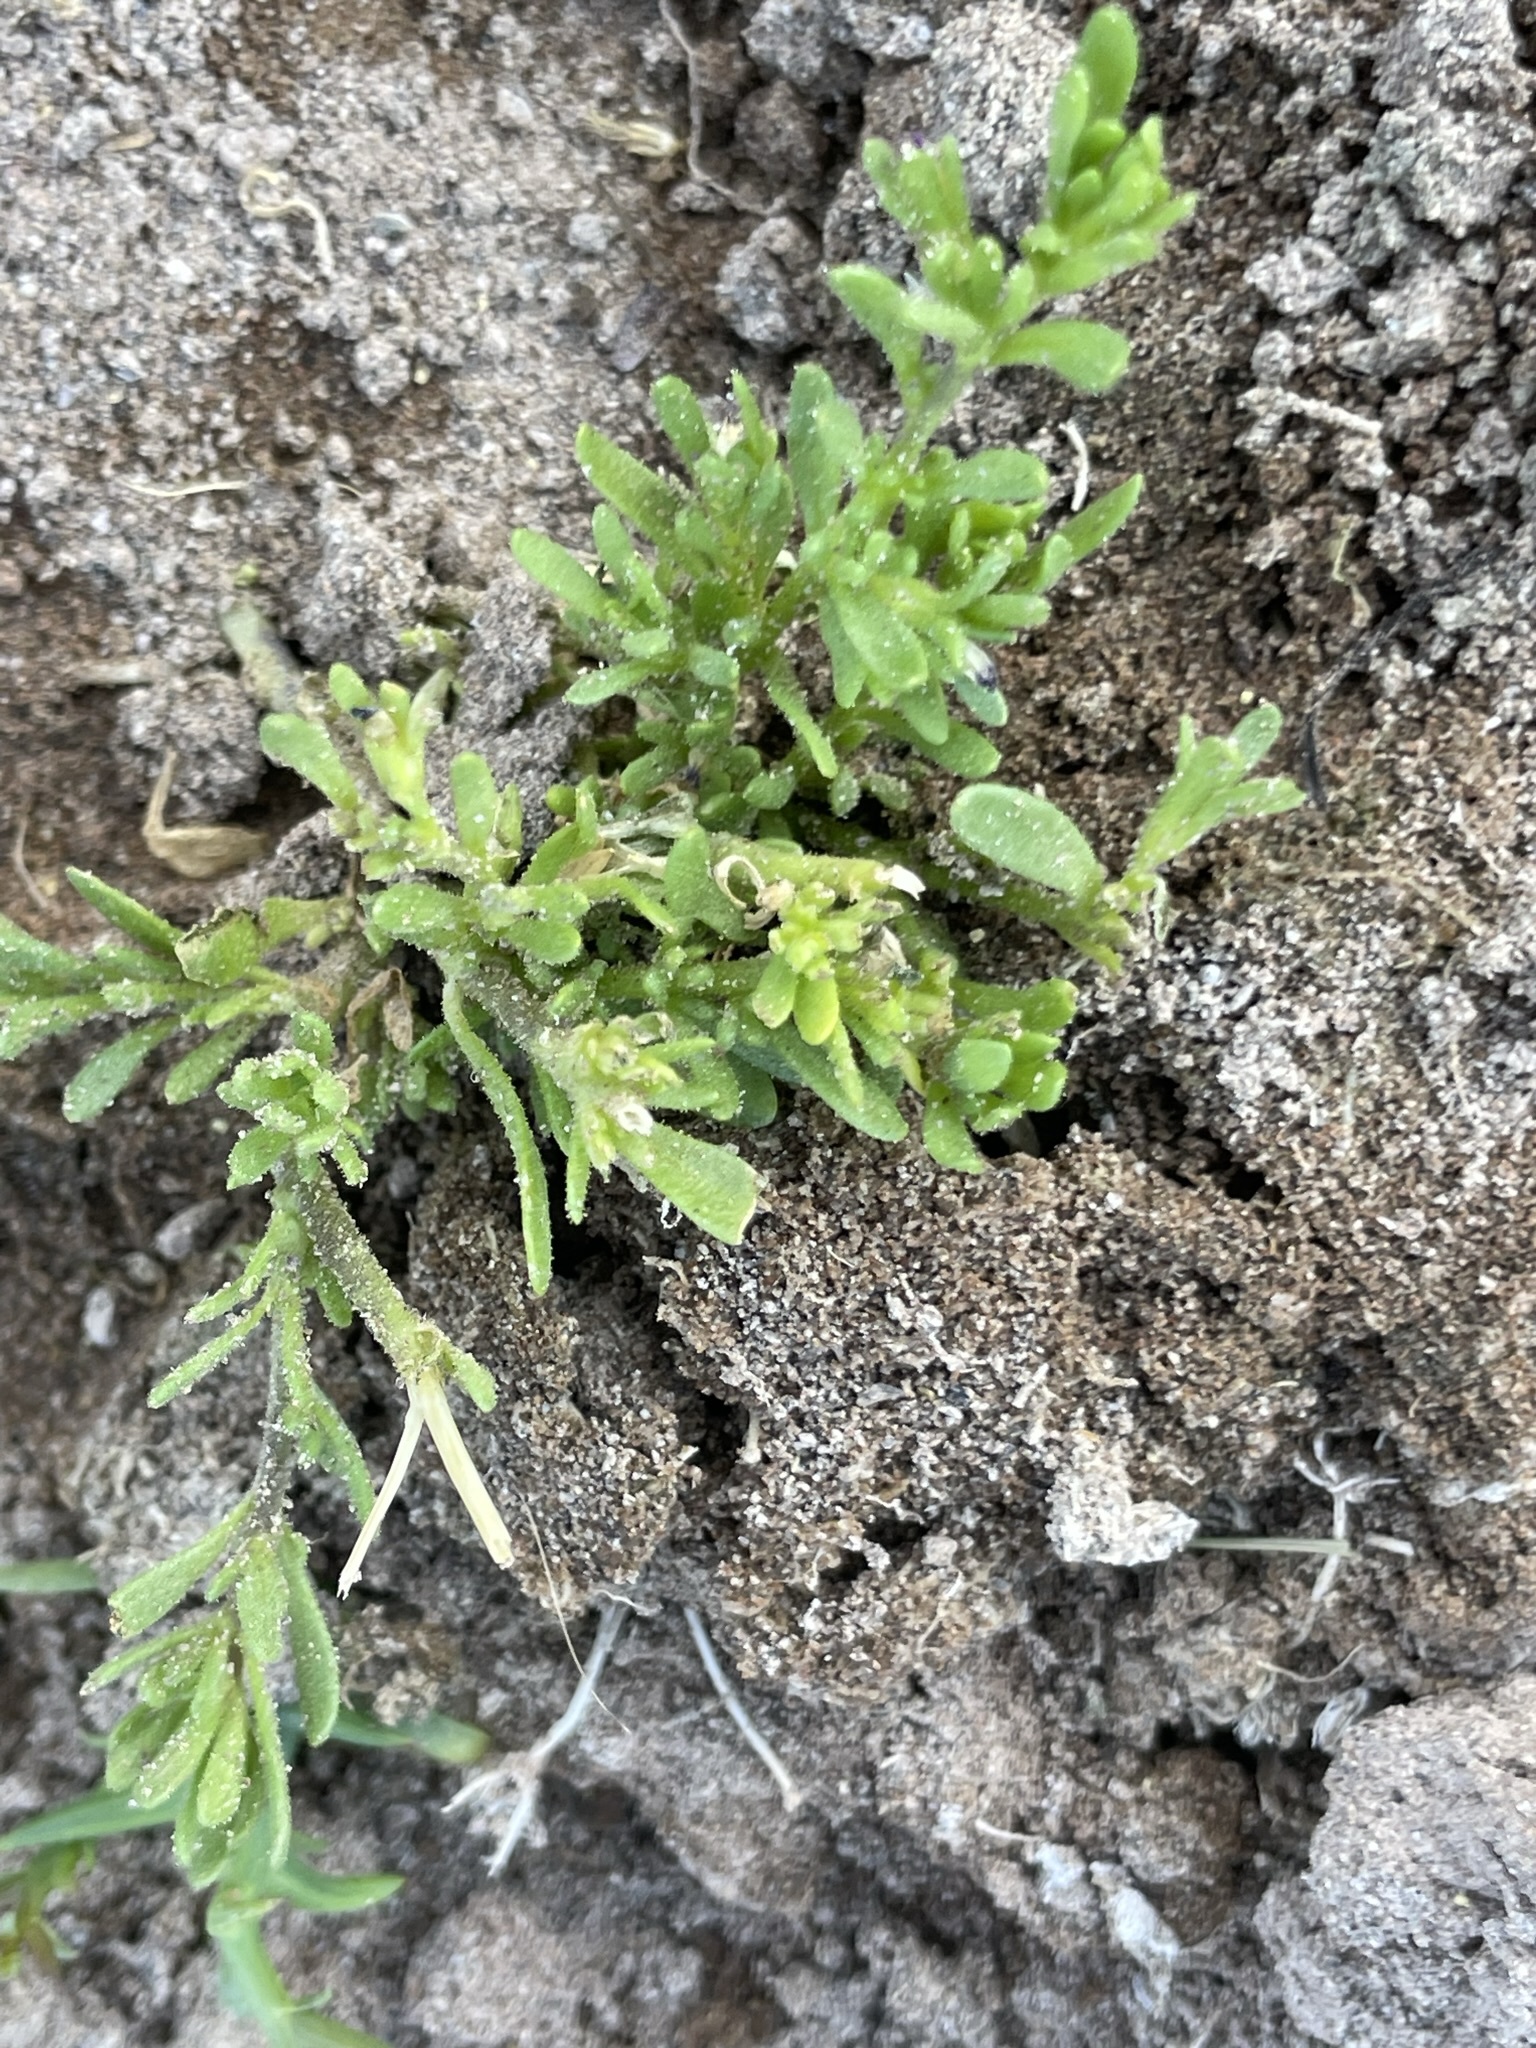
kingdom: Plantae
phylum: Tracheophyta
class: Magnoliopsida
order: Solanales
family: Solanaceae
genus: Calibrachoa
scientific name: Calibrachoa parviflora
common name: Seaside petunia
